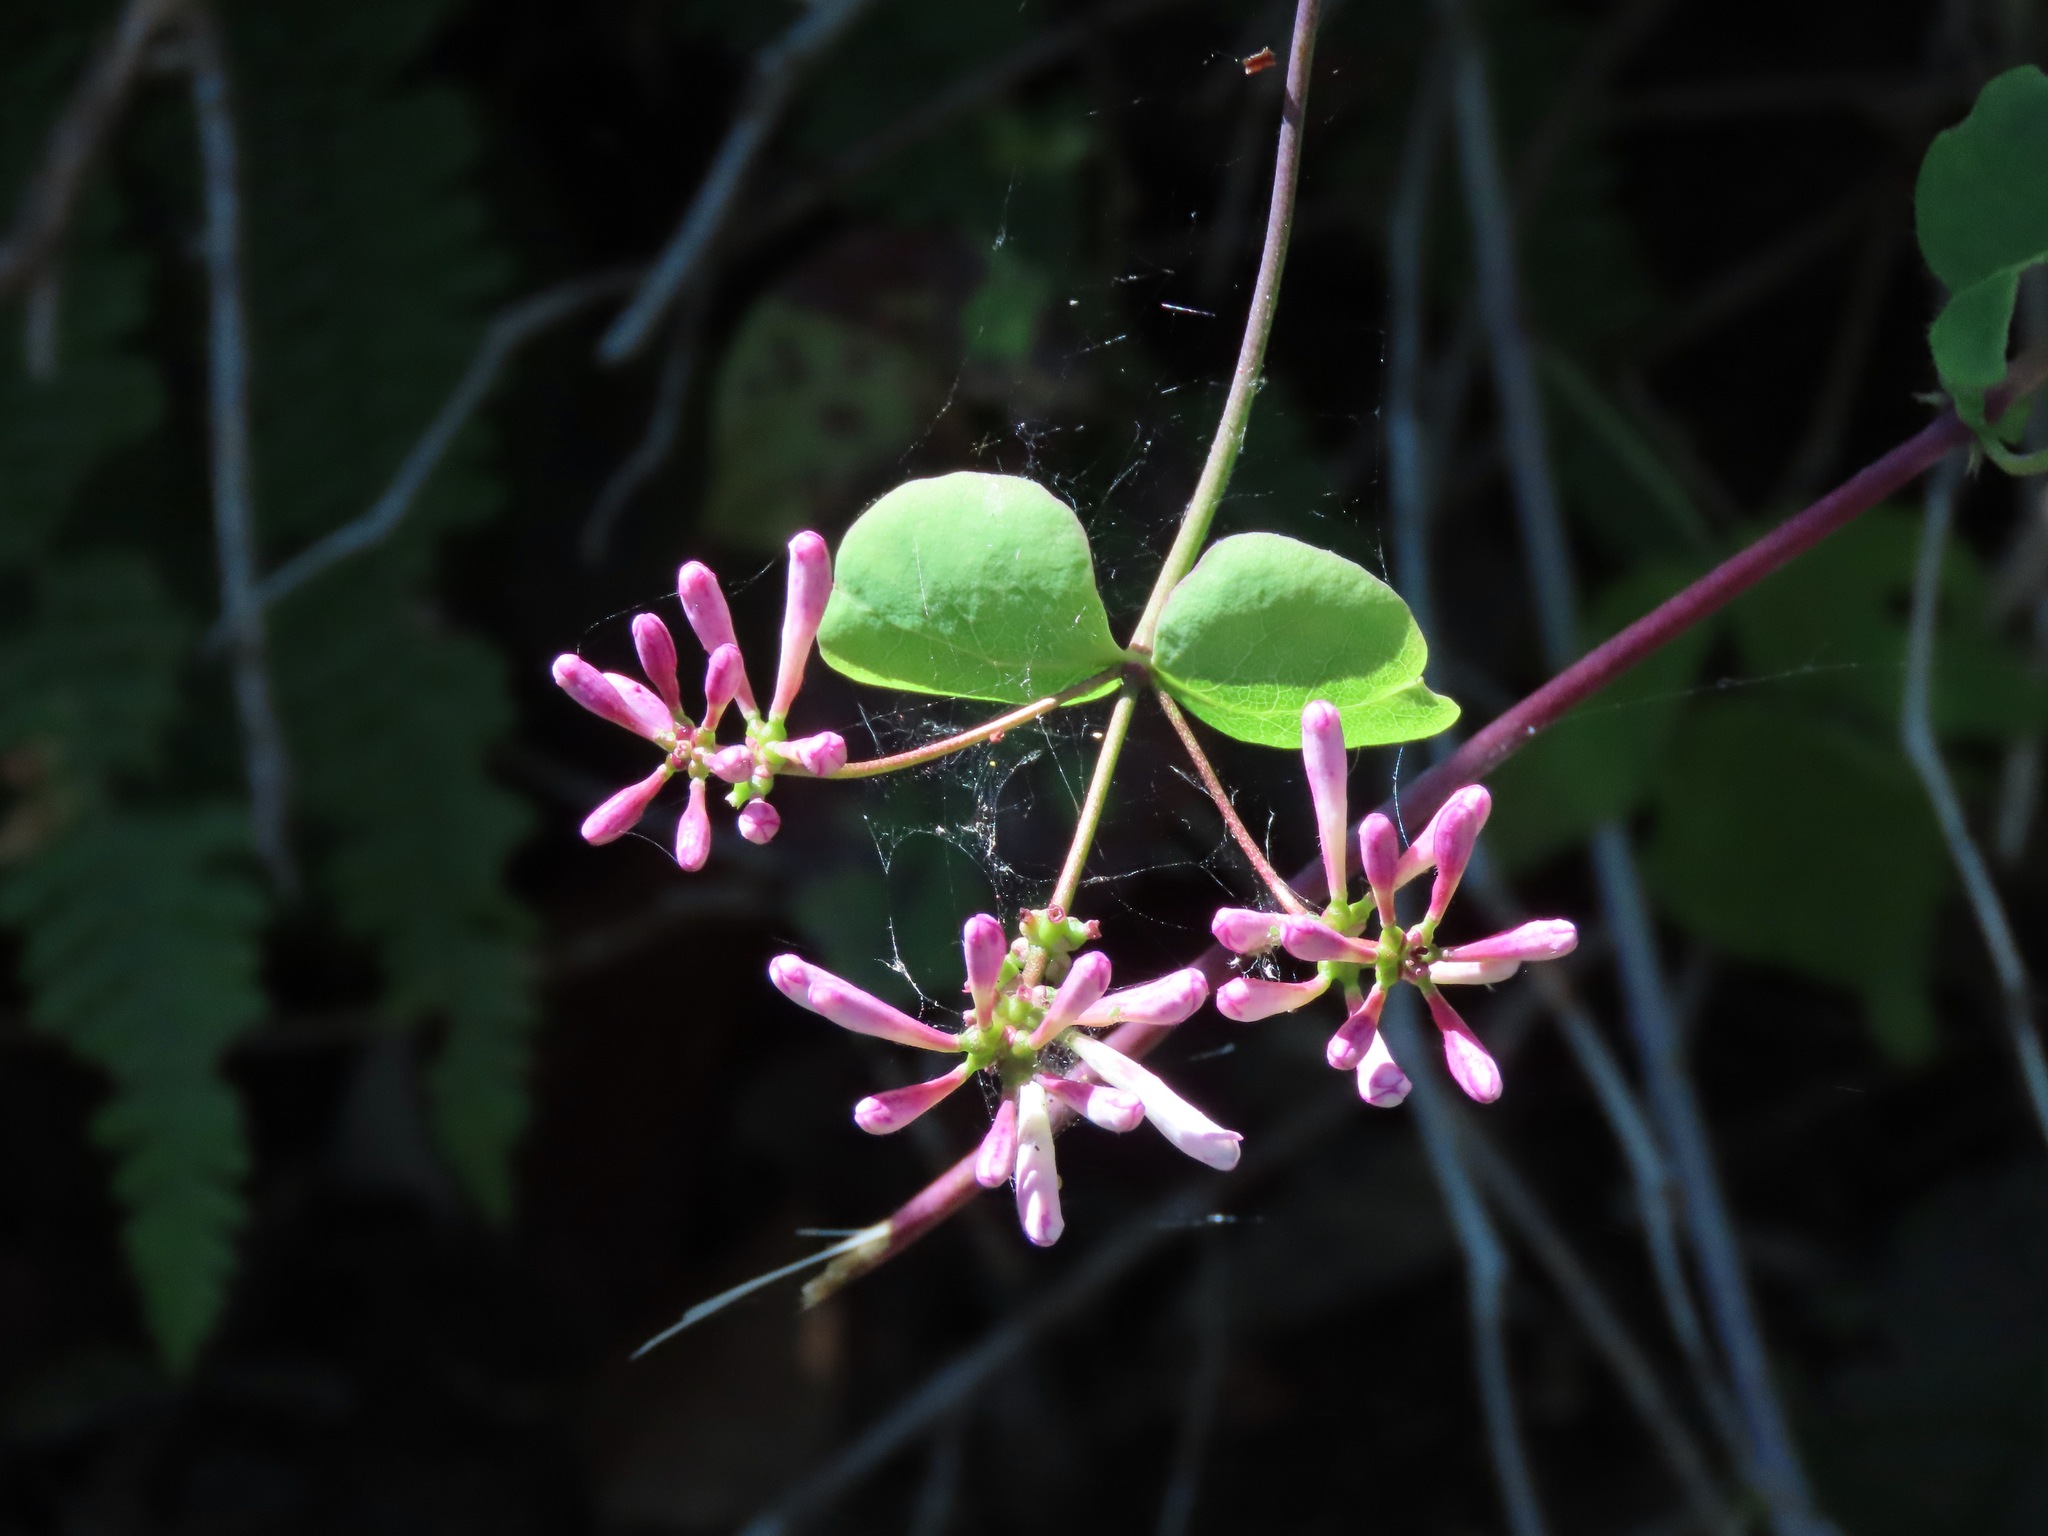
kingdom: Plantae
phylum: Tracheophyta
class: Magnoliopsida
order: Dipsacales
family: Caprifoliaceae
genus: Lonicera
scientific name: Lonicera hispidula
